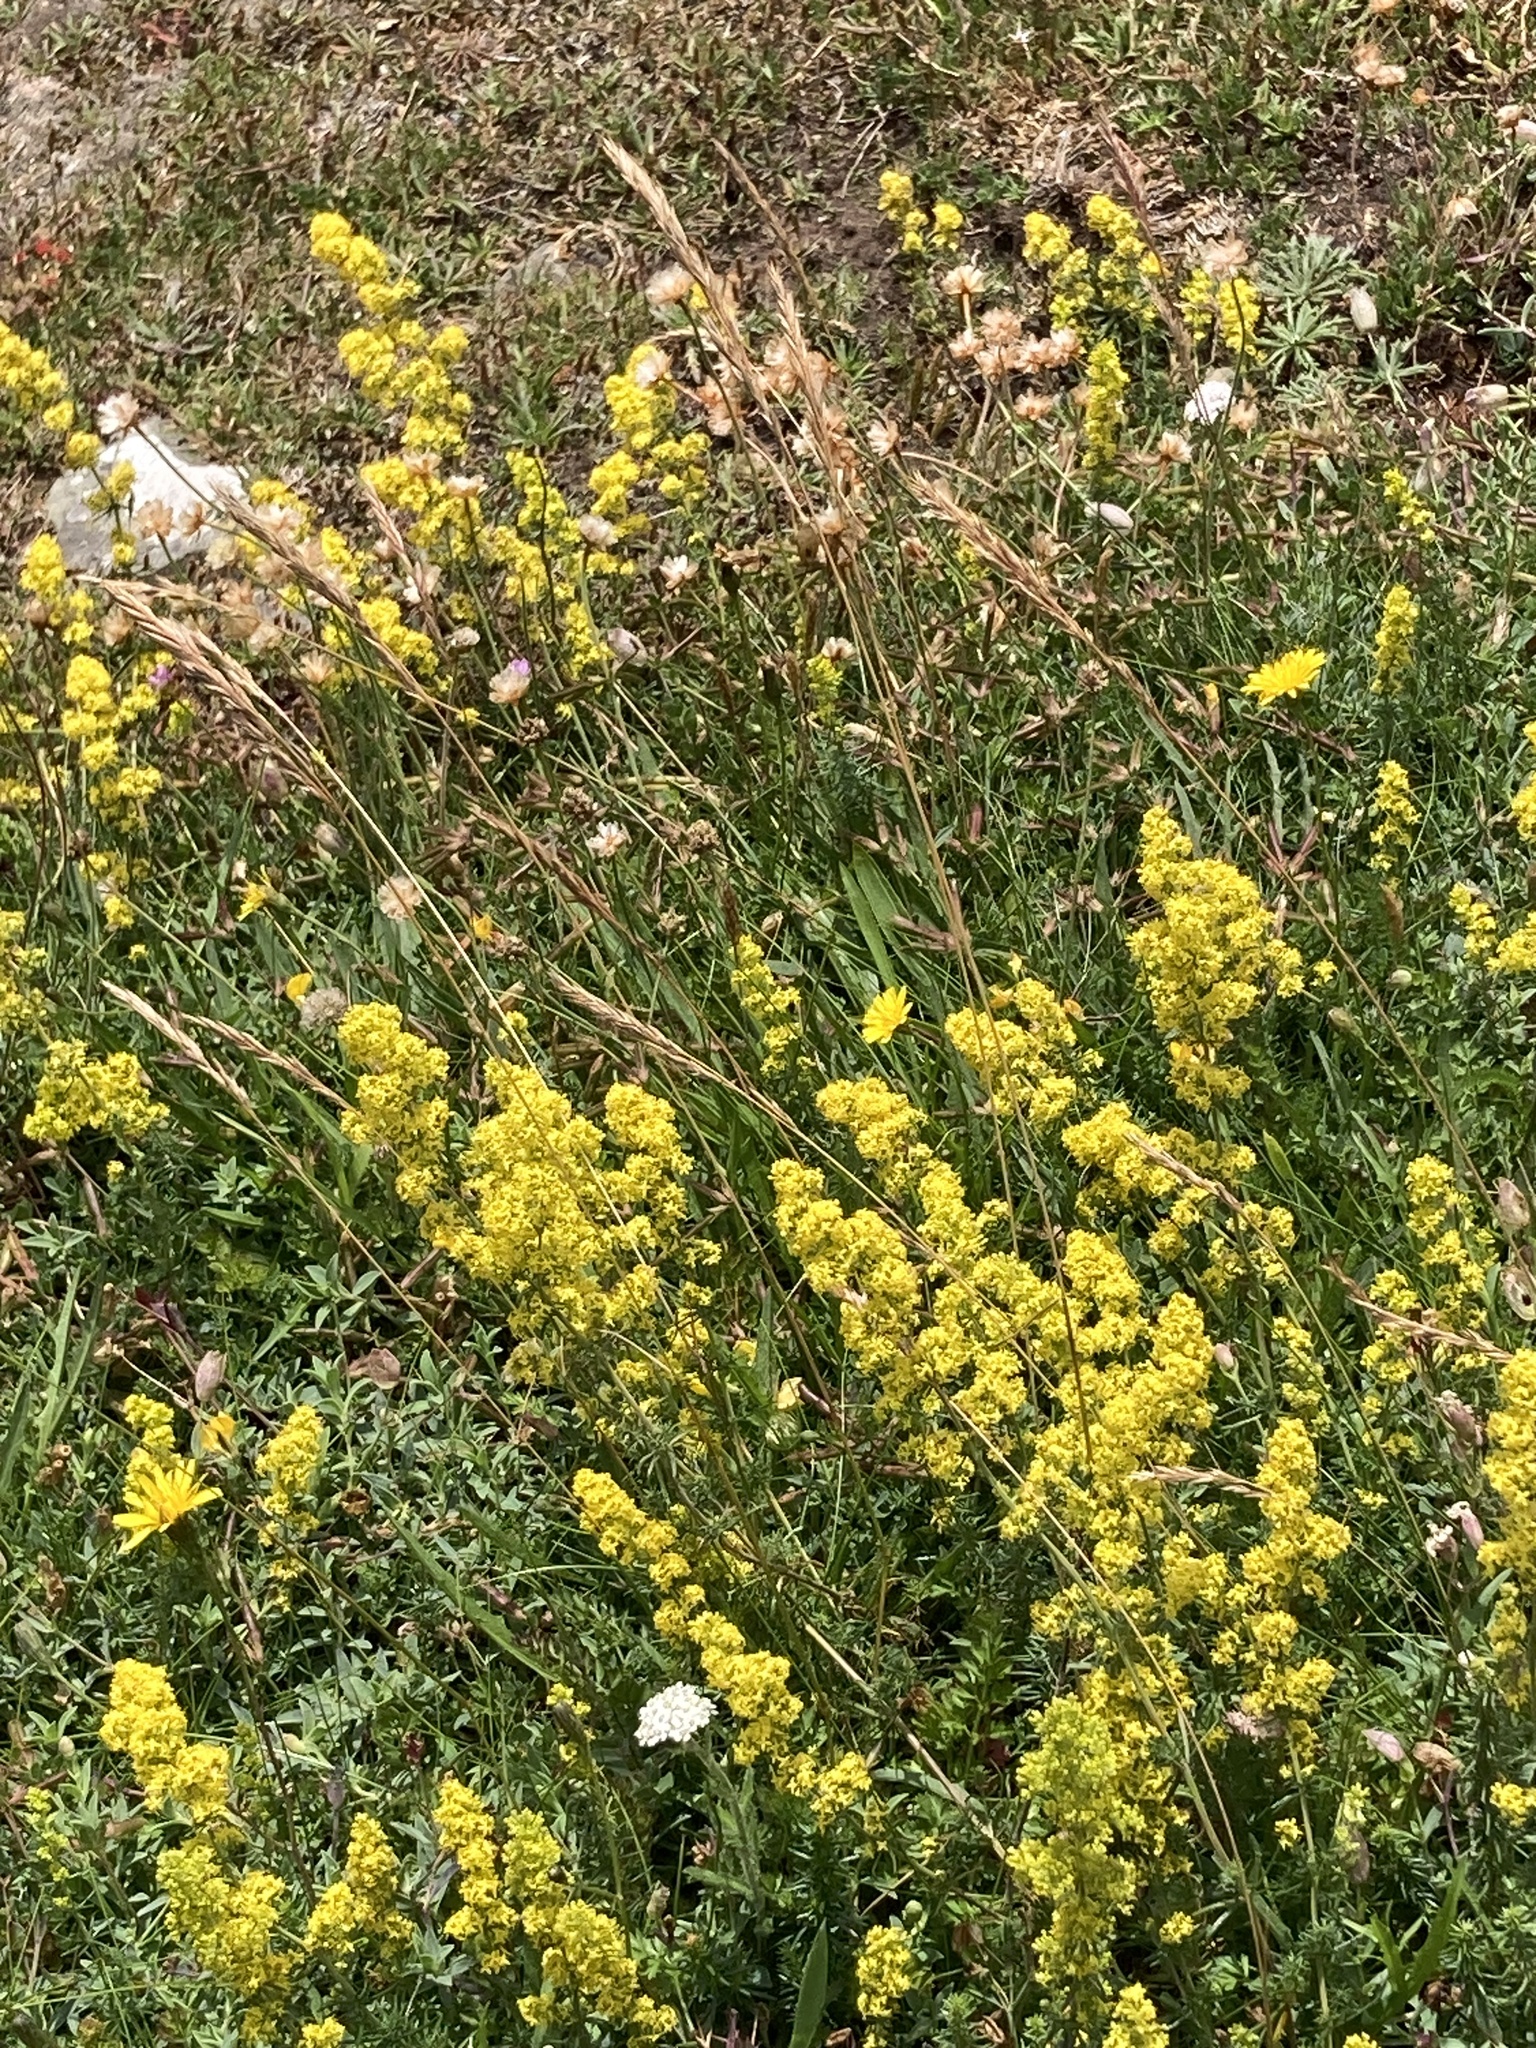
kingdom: Plantae
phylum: Tracheophyta
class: Magnoliopsida
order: Gentianales
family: Rubiaceae
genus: Galium
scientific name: Galium verum
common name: Lady's bedstraw
